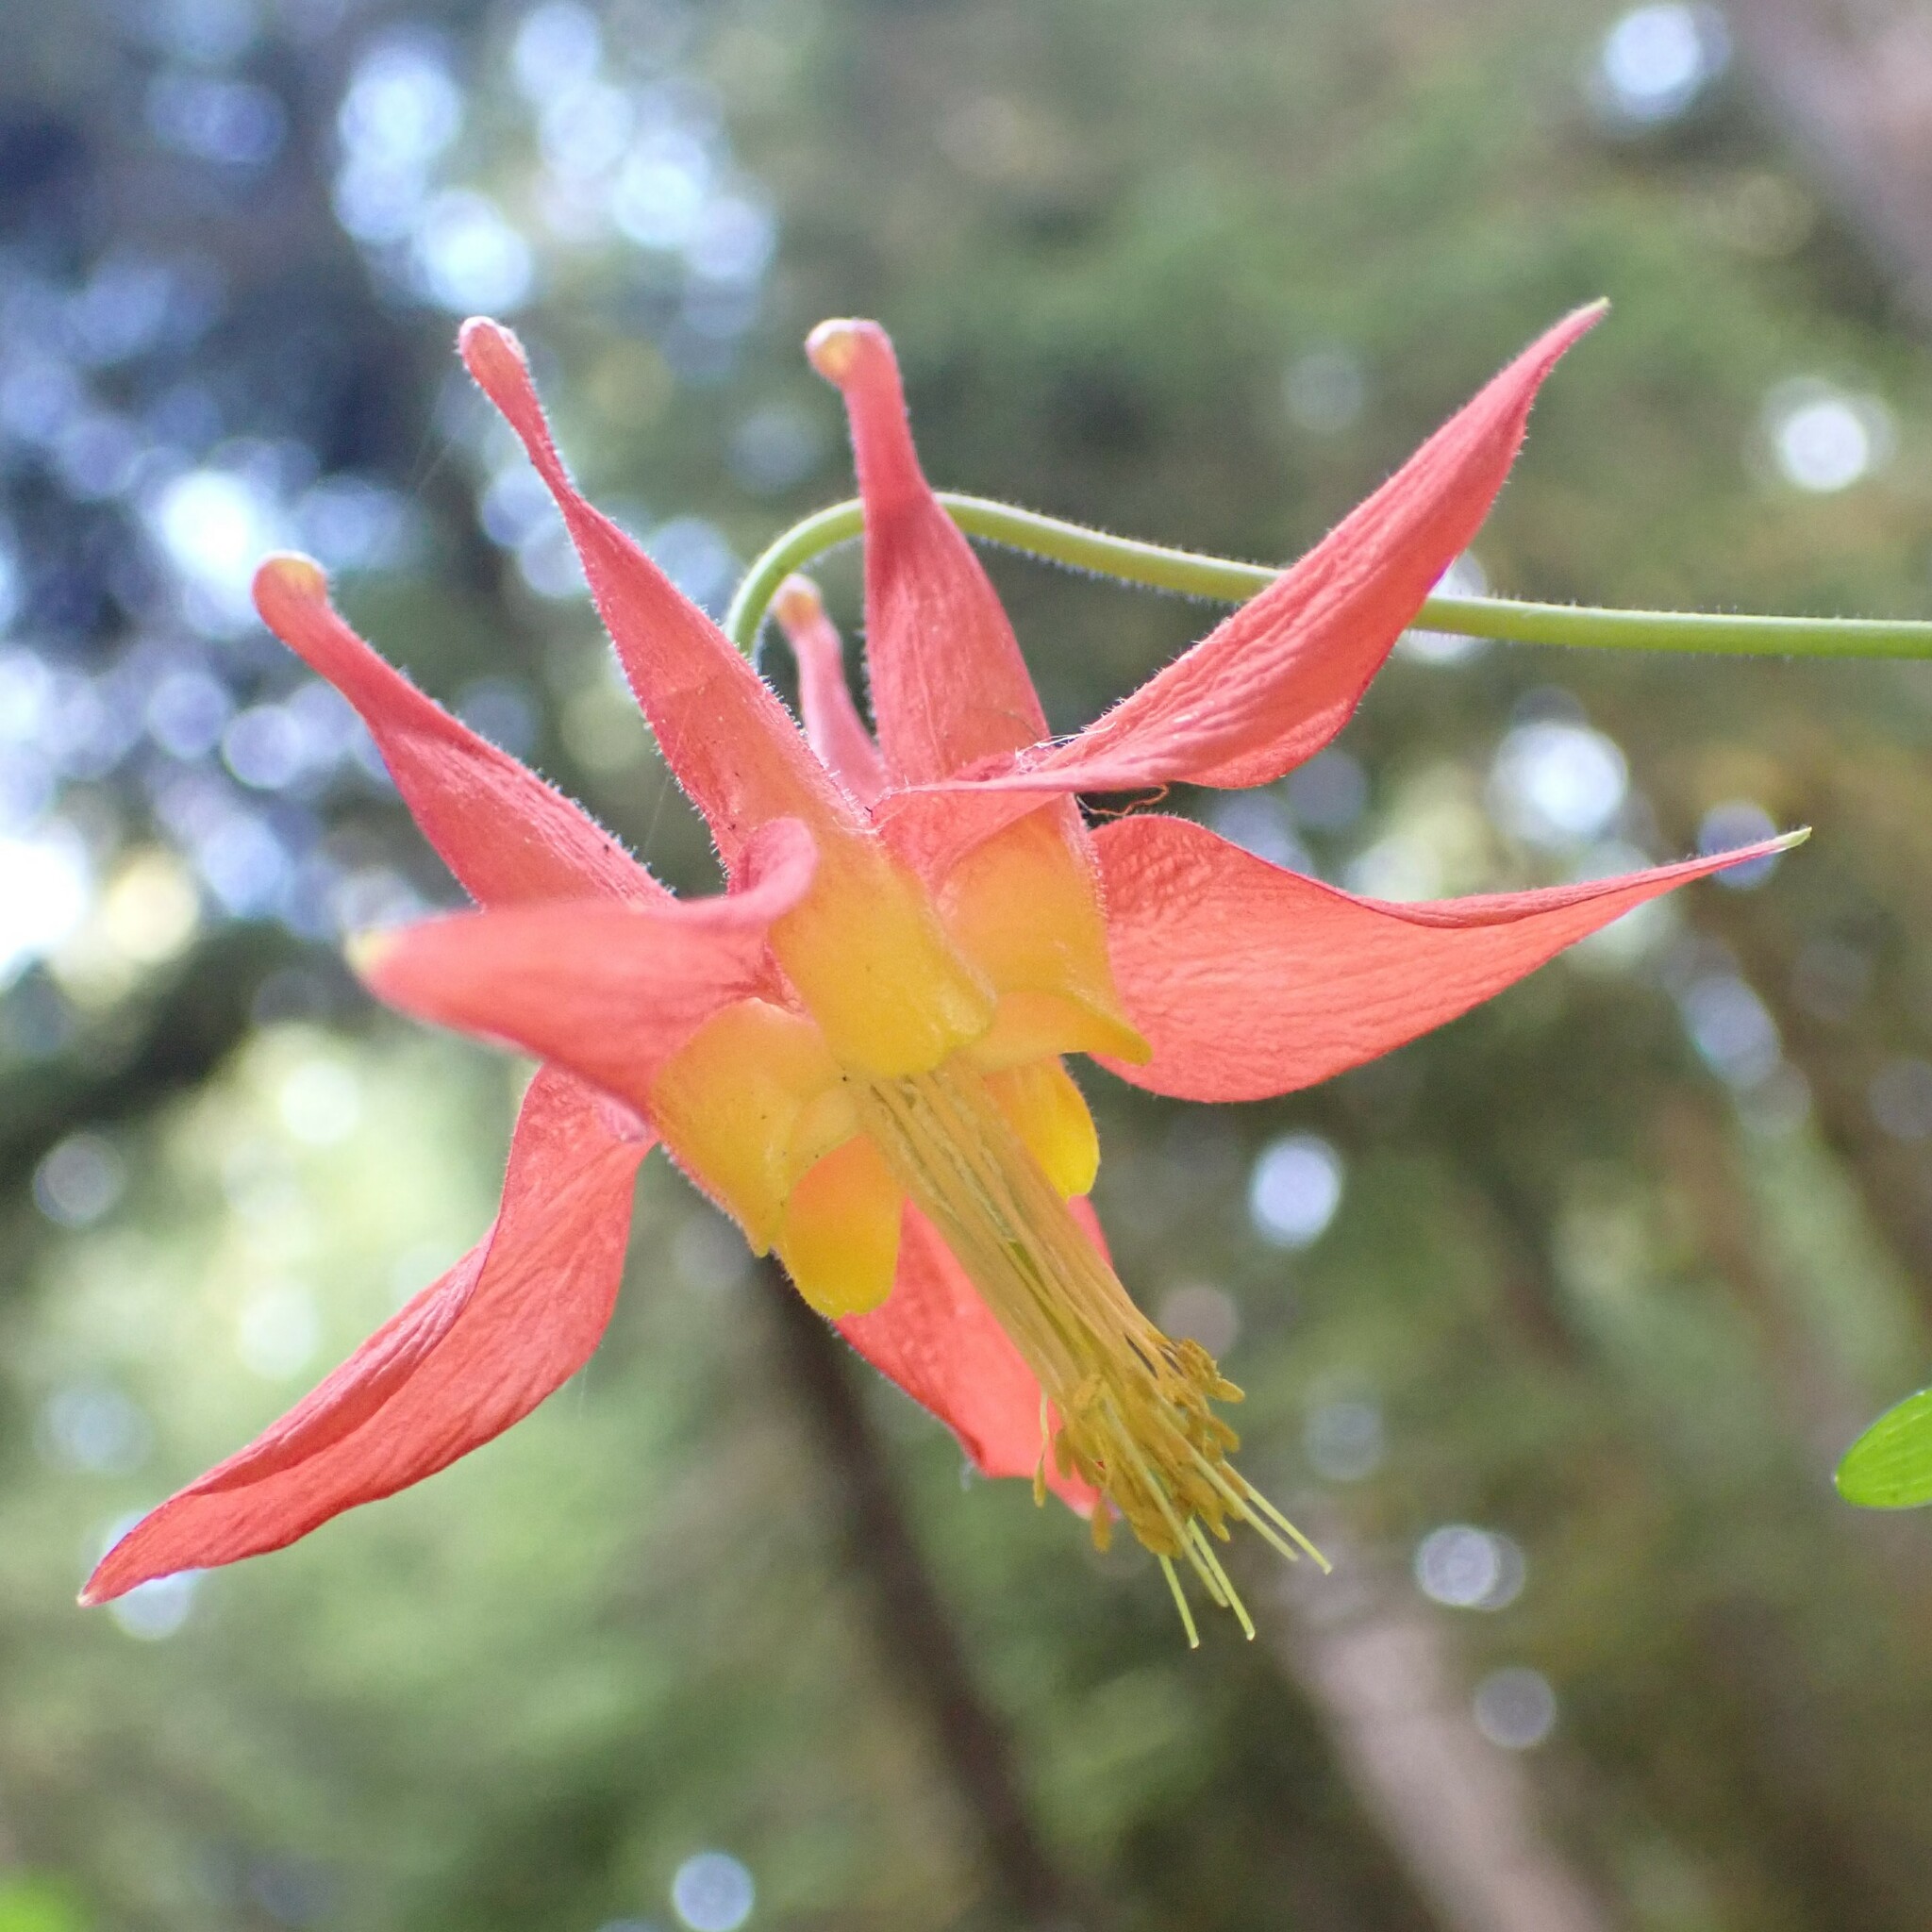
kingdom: Plantae
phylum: Tracheophyta
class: Magnoliopsida
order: Ranunculales
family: Ranunculaceae
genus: Aquilegia
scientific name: Aquilegia formosa
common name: Sitka columbine
